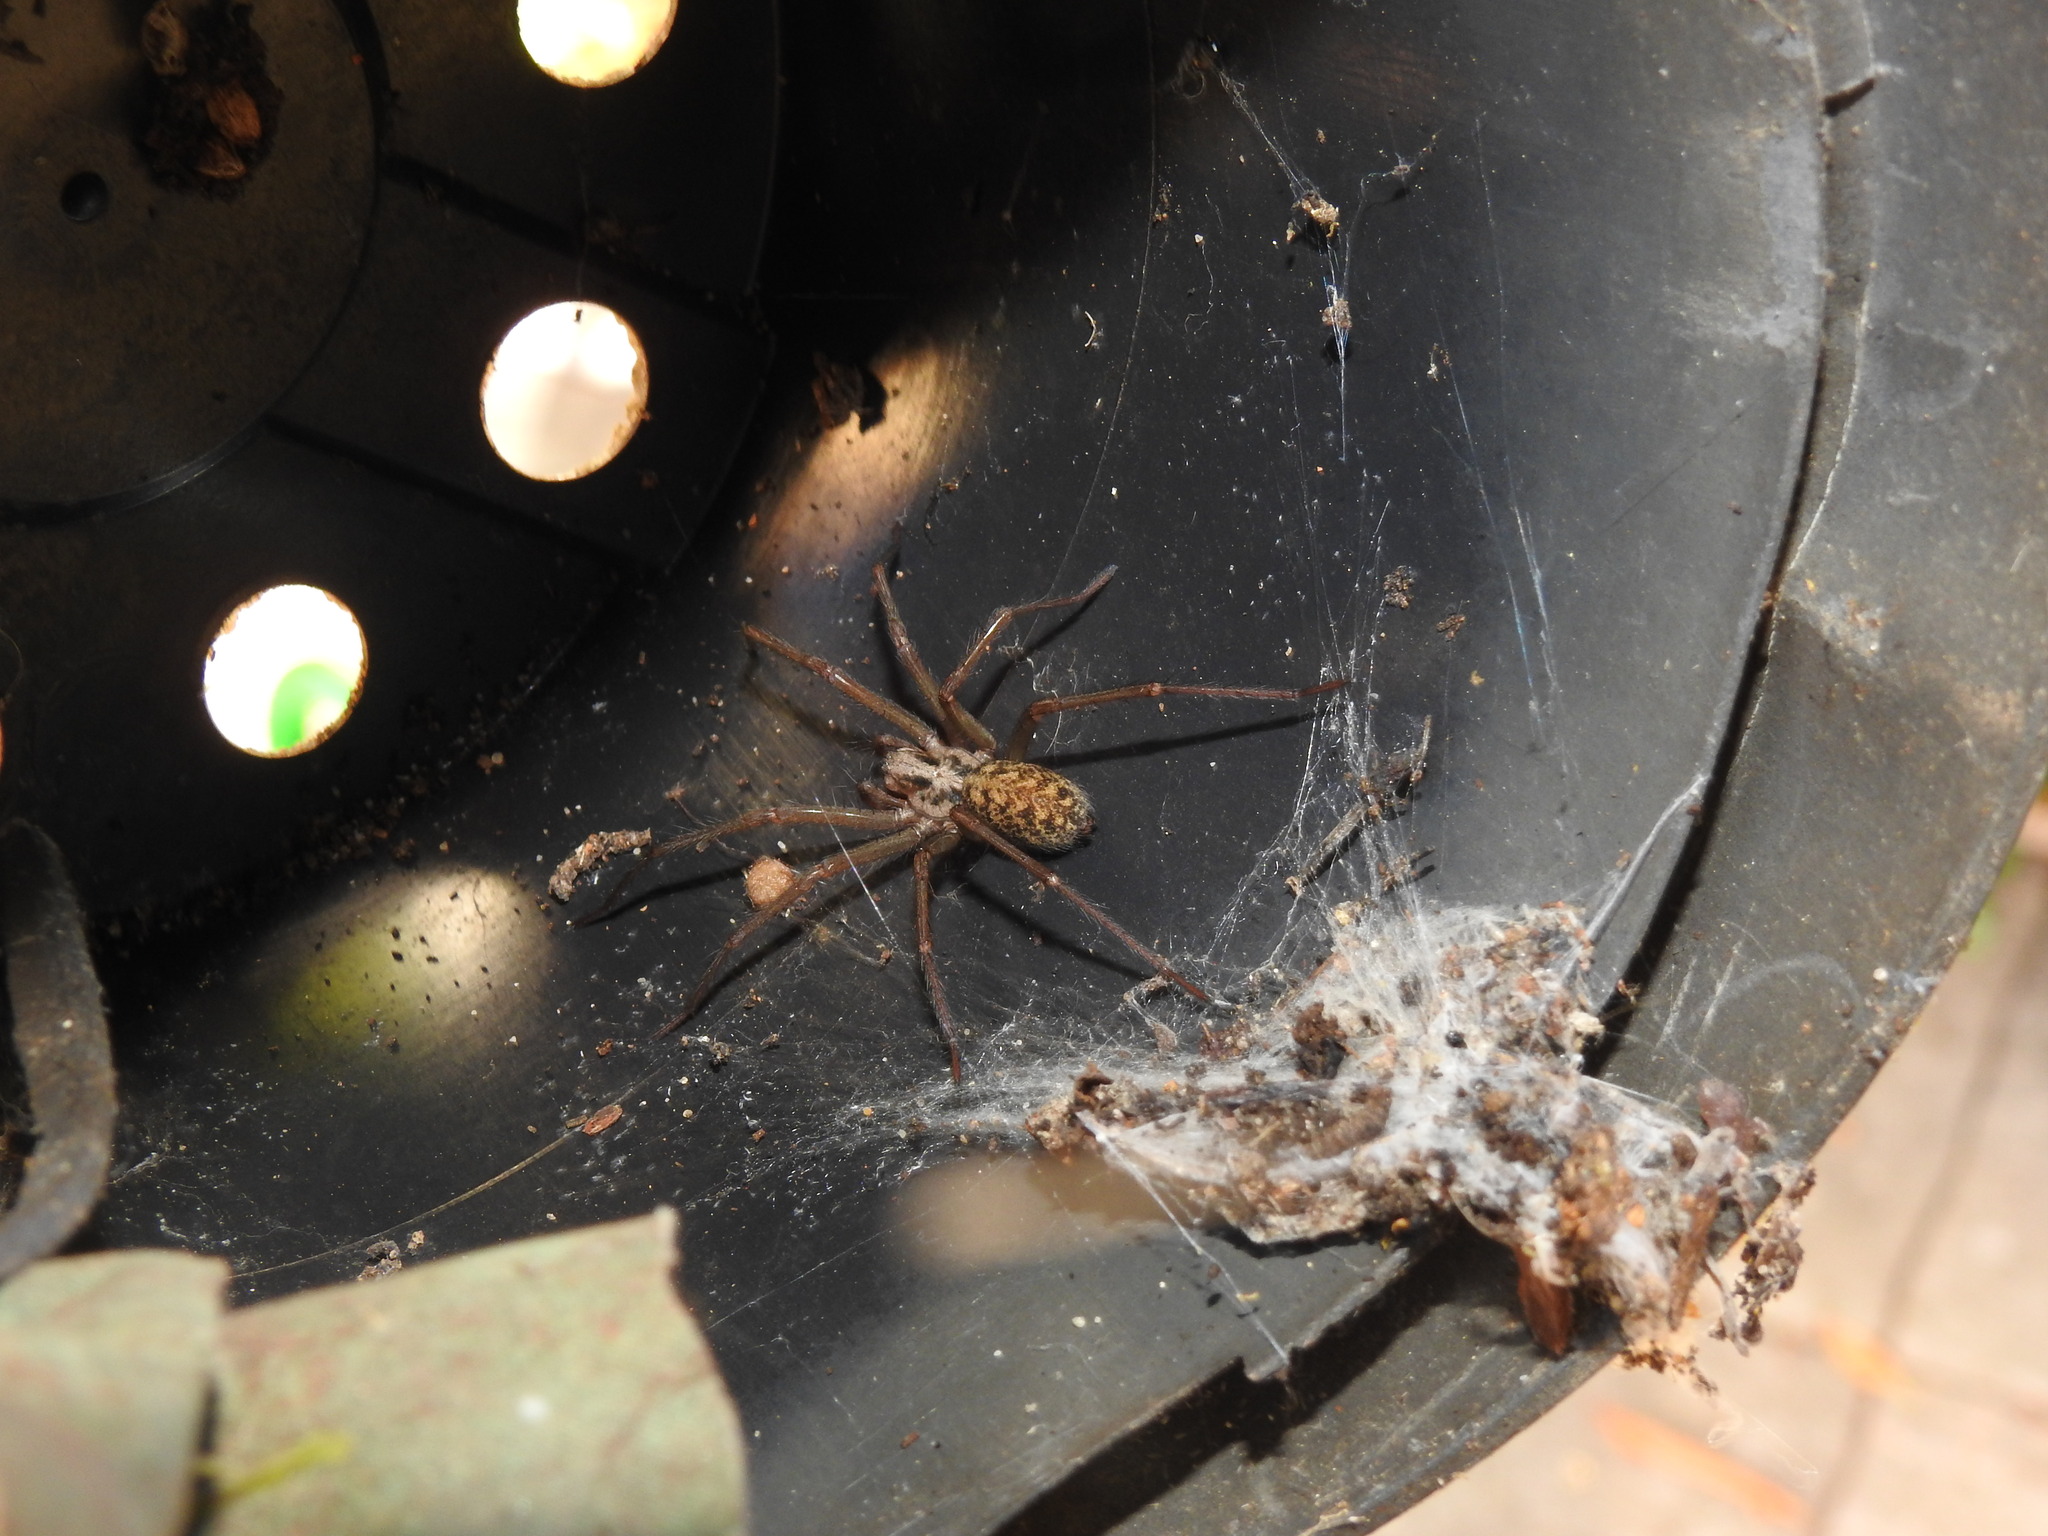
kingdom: Animalia
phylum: Arthropoda
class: Arachnida
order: Araneae
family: Agelenidae
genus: Eratigena
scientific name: Eratigena
